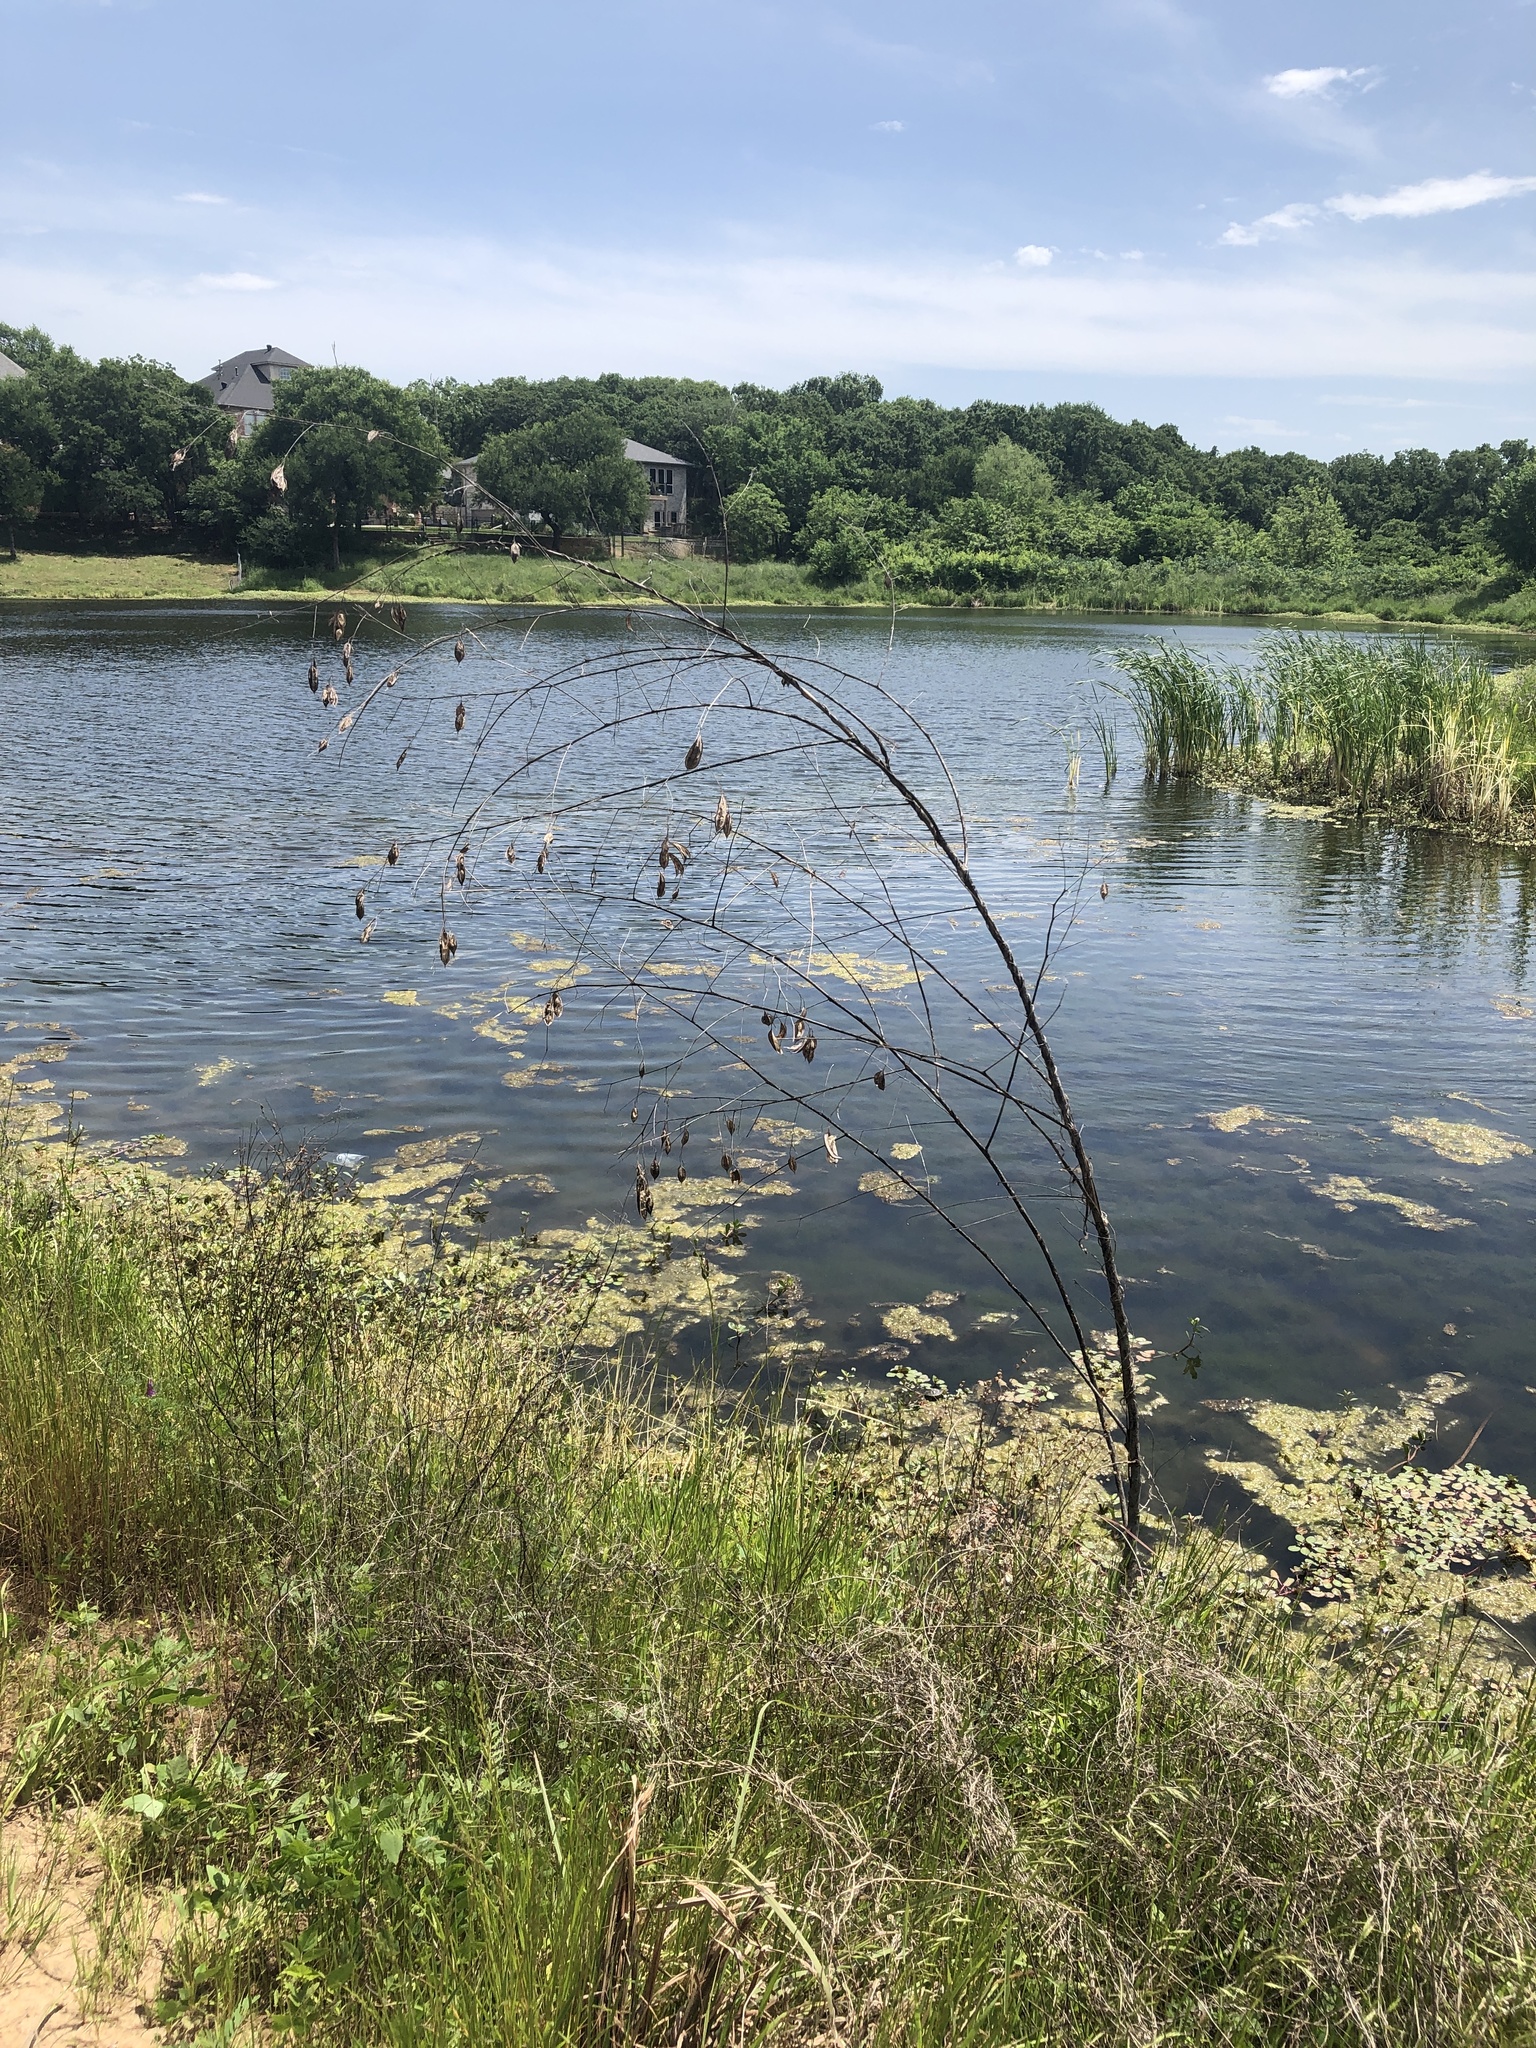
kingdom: Plantae
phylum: Tracheophyta
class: Magnoliopsida
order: Fabales
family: Fabaceae
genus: Sesbania
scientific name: Sesbania vesicaria
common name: Bagpod
